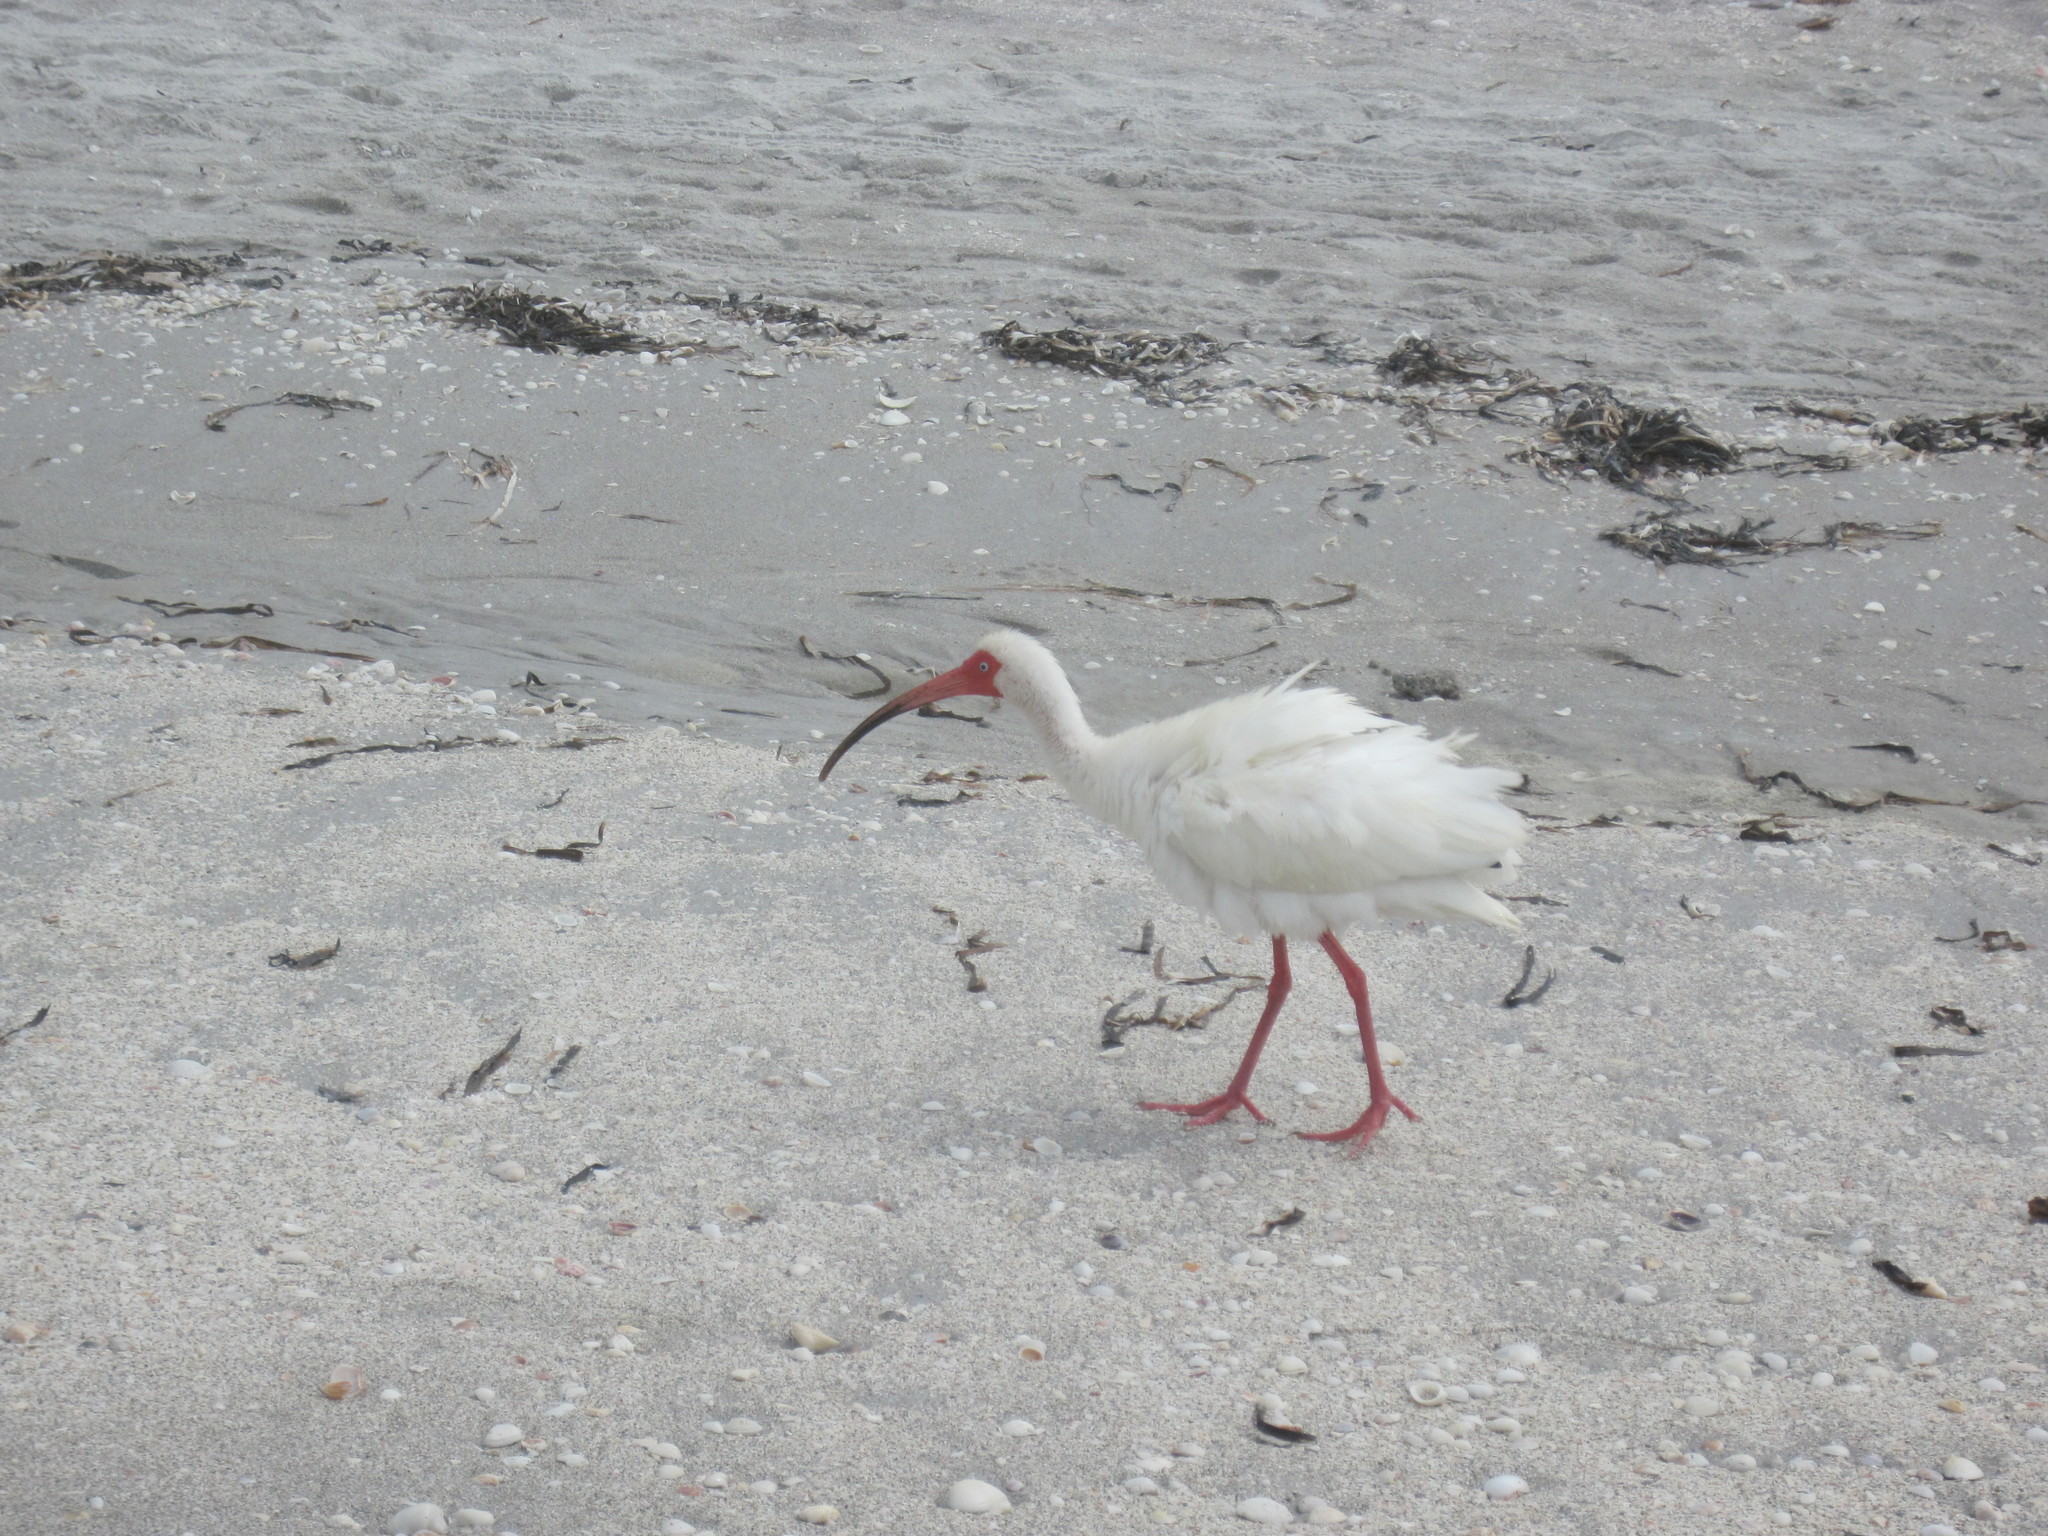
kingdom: Animalia
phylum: Chordata
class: Aves
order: Pelecaniformes
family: Threskiornithidae
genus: Eudocimus
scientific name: Eudocimus albus
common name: White ibis
